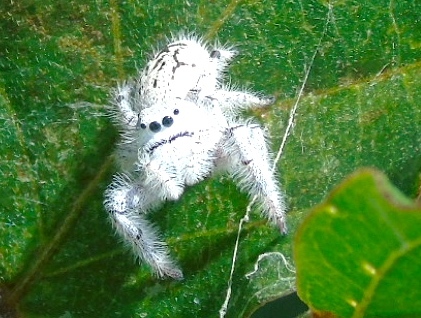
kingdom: Animalia
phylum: Arthropoda
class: Arachnida
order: Araneae
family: Salticidae
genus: Paraphidippus
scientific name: Paraphidippus fartilis
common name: Jumping spiders
